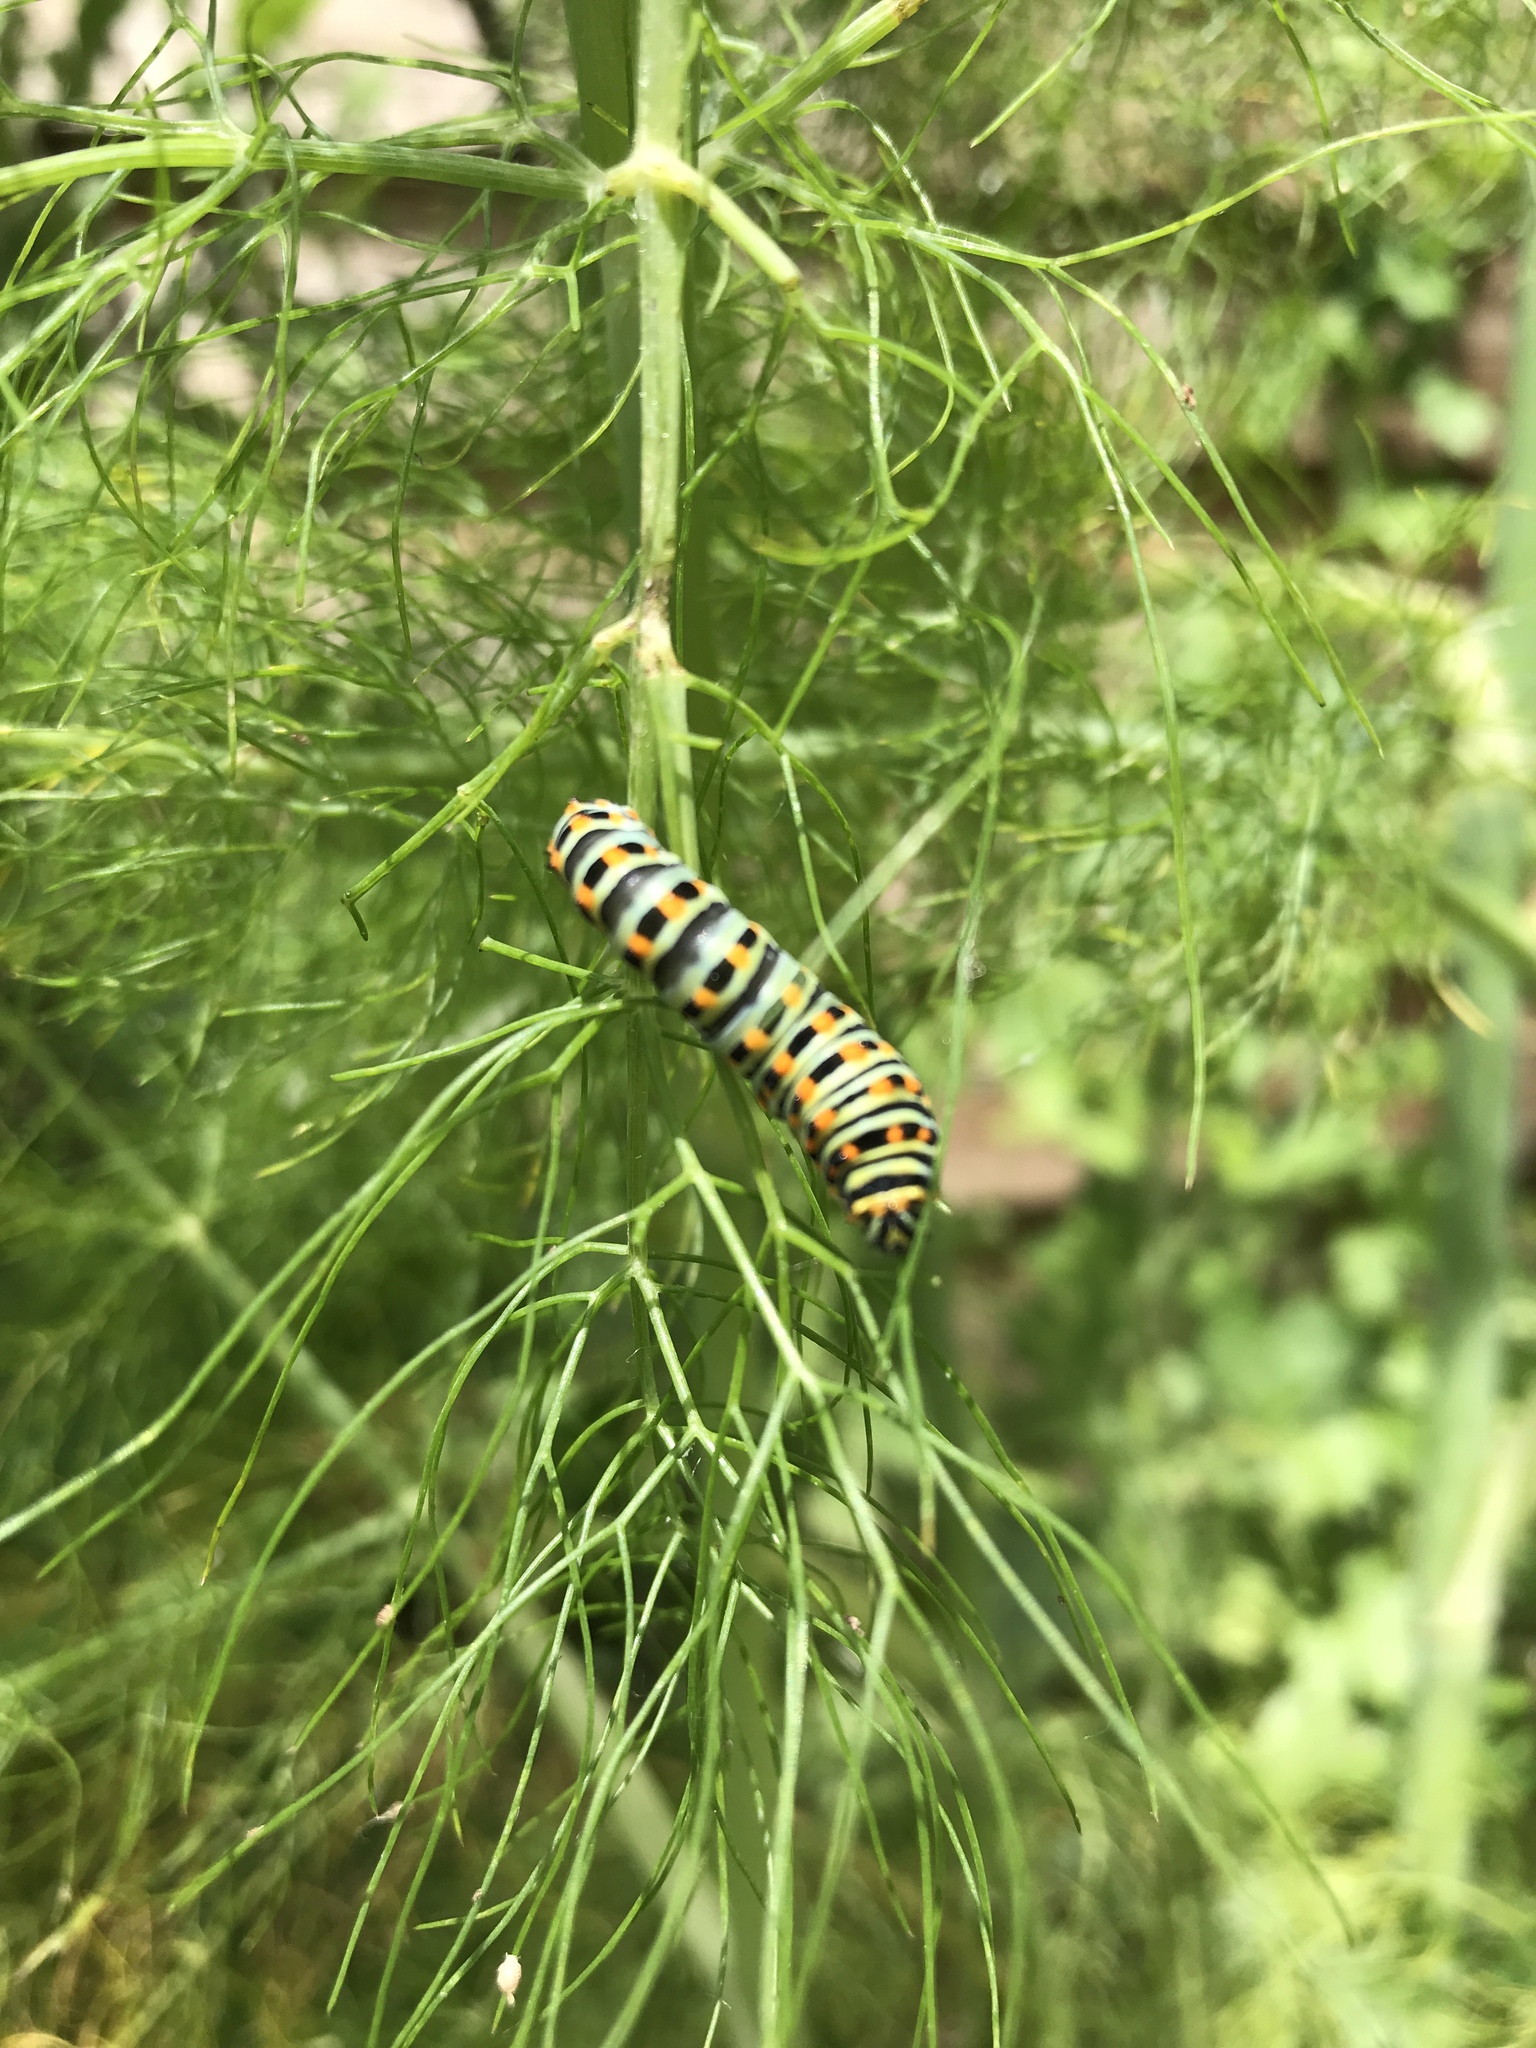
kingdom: Animalia
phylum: Arthropoda
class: Insecta
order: Lepidoptera
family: Papilionidae
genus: Papilio
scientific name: Papilio machaon
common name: Swallowtail
